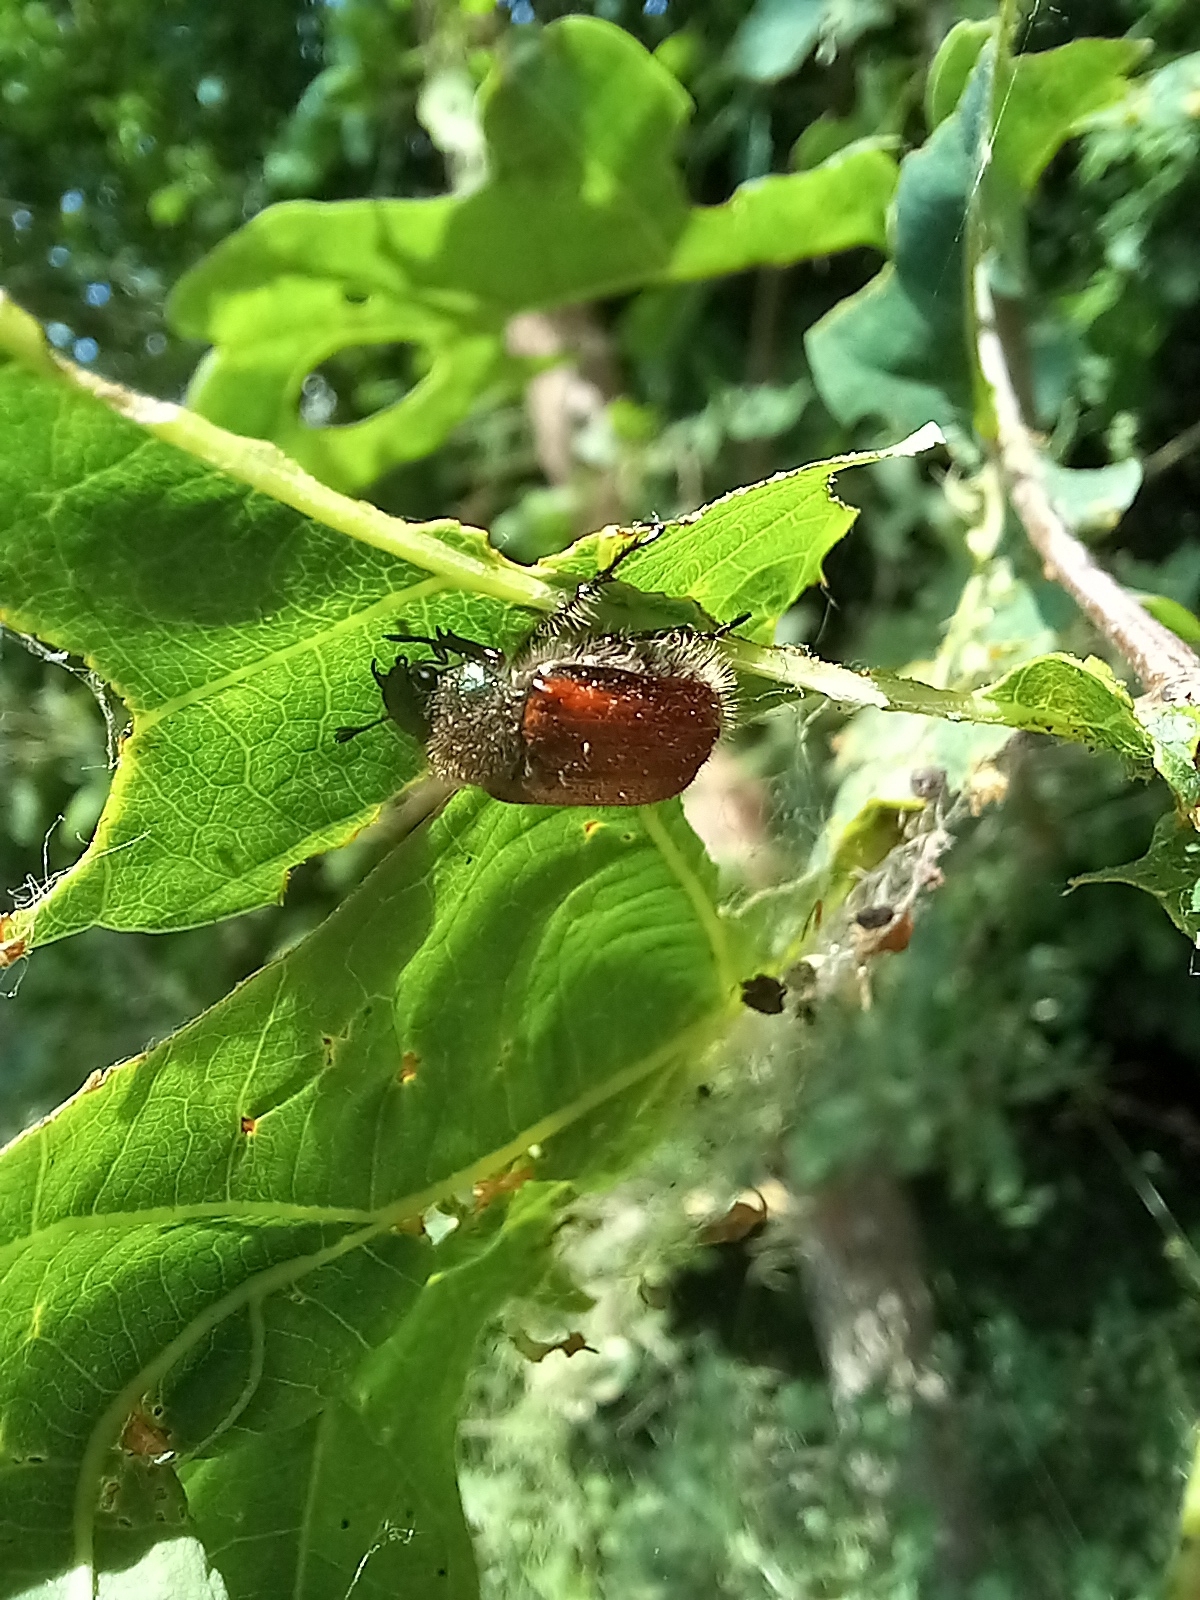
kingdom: Animalia
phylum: Arthropoda
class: Insecta
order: Coleoptera
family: Scarabaeidae
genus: Phyllopertha
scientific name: Phyllopertha horticola
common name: Garden chafer
